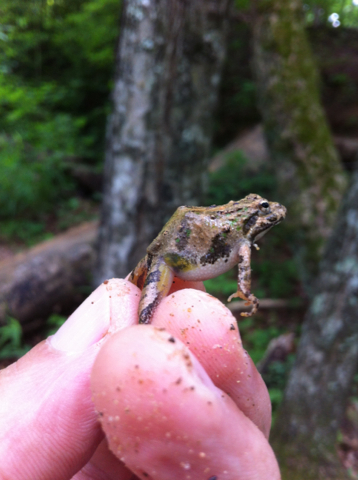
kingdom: Animalia
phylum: Chordata
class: Amphibia
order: Anura
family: Hylidae
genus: Acris
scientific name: Acris crepitans
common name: Northern cricket frog
